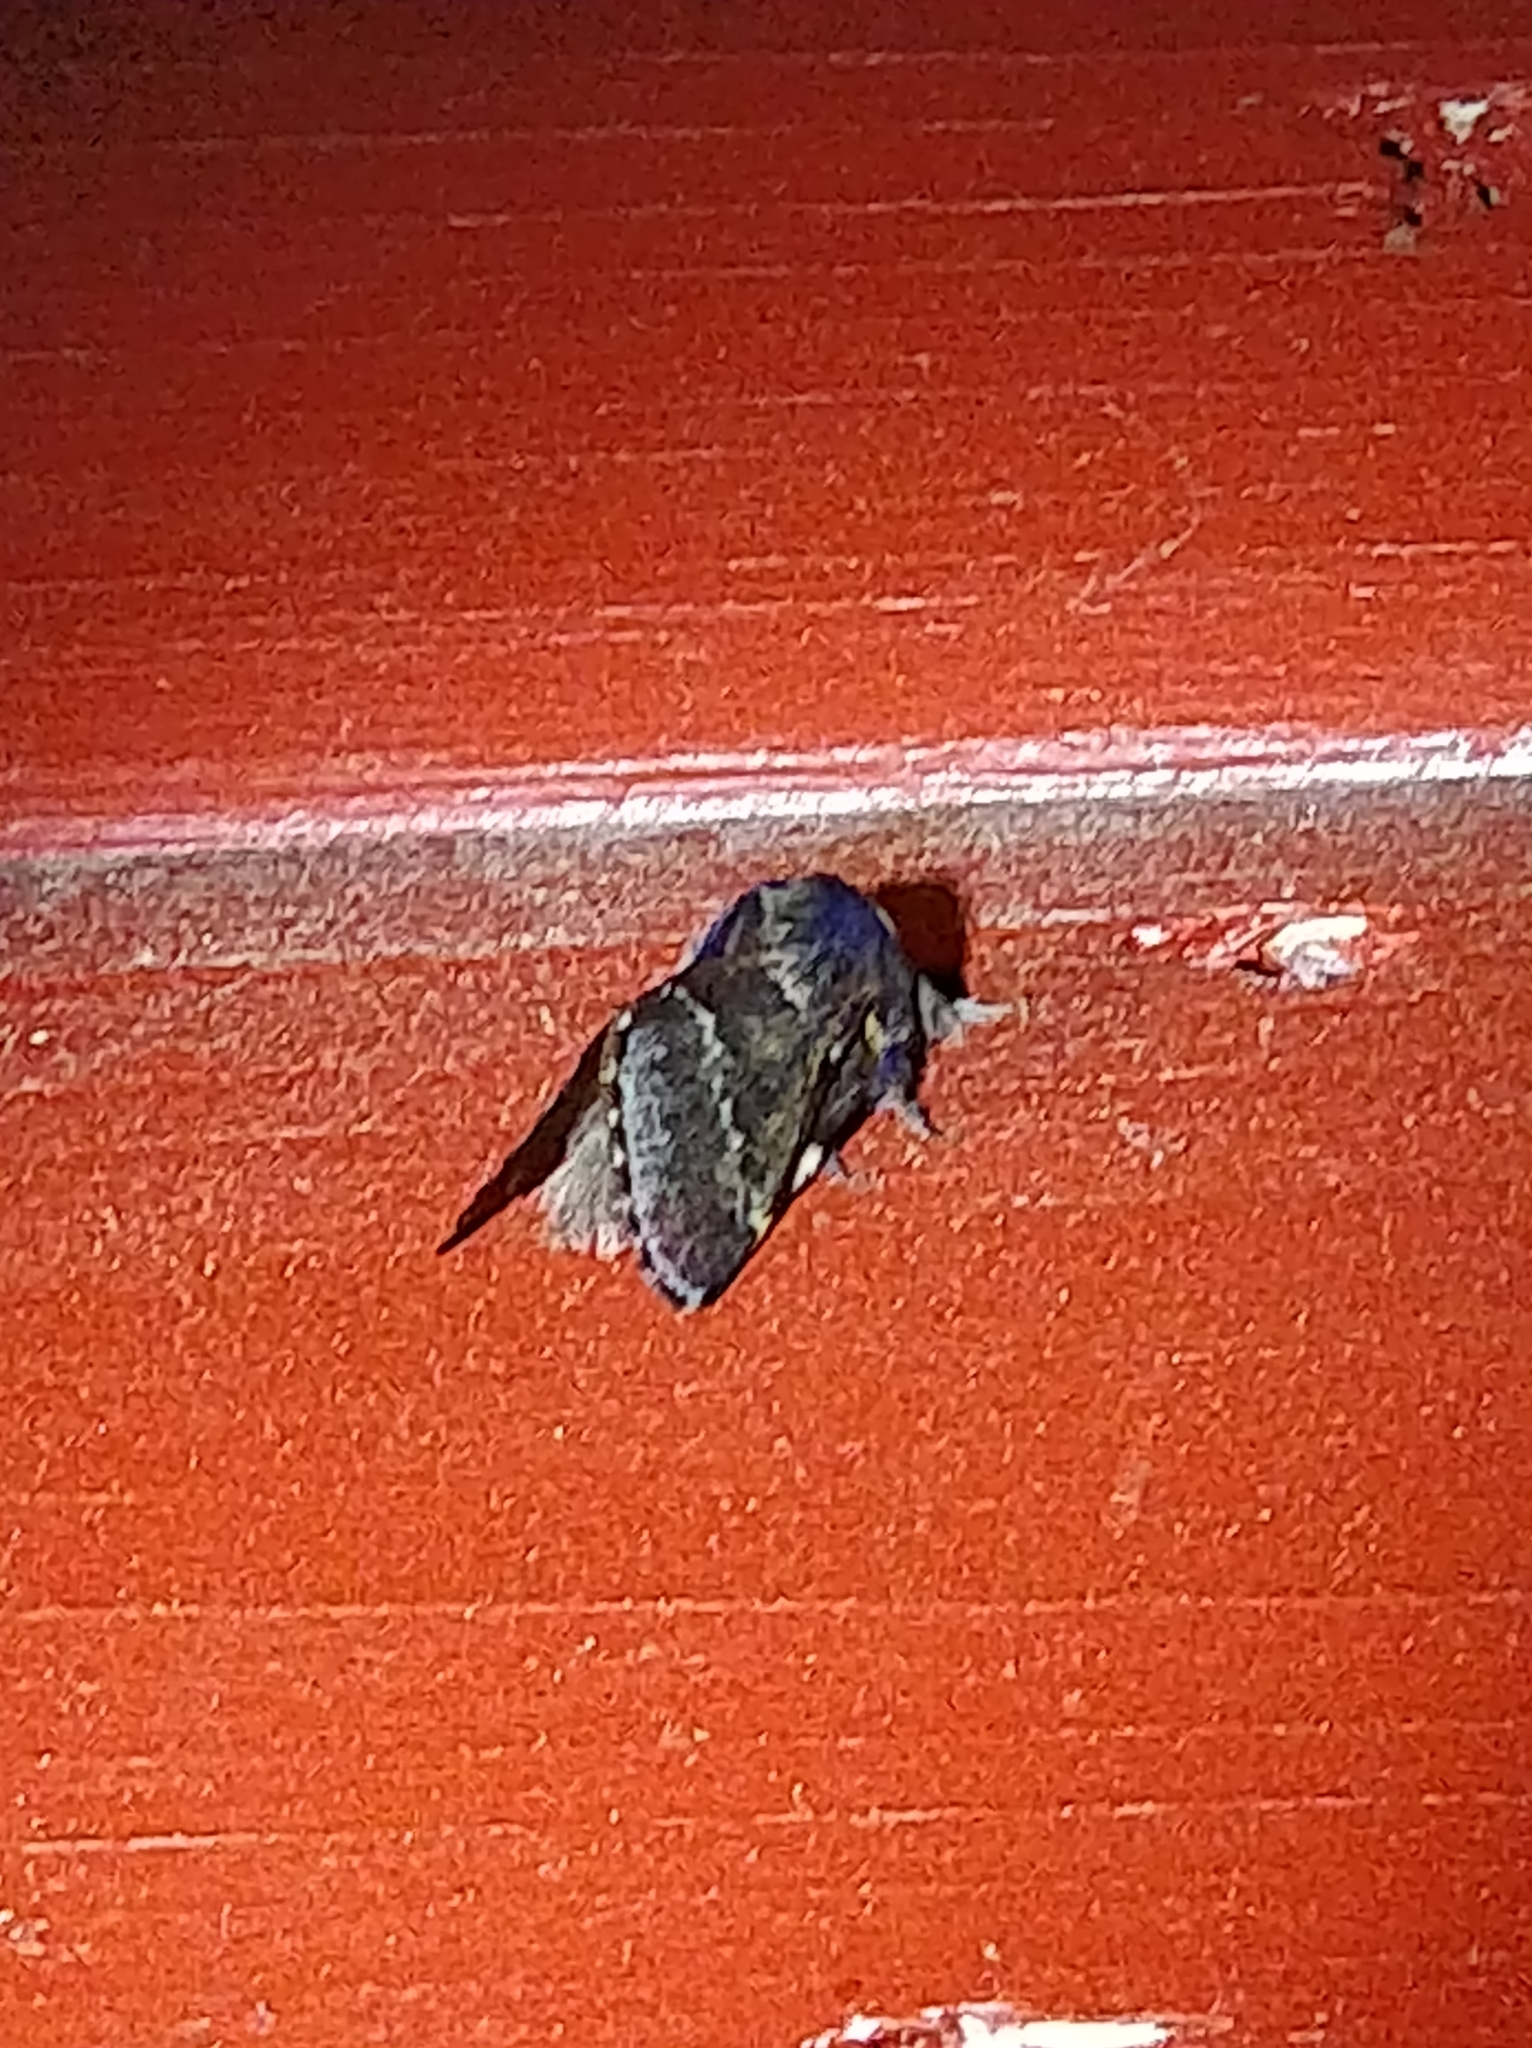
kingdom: Animalia
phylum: Arthropoda
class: Insecta
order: Lepidoptera
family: Lasiocampidae
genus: Poecilocampa
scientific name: Poecilocampa populi
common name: December moth
